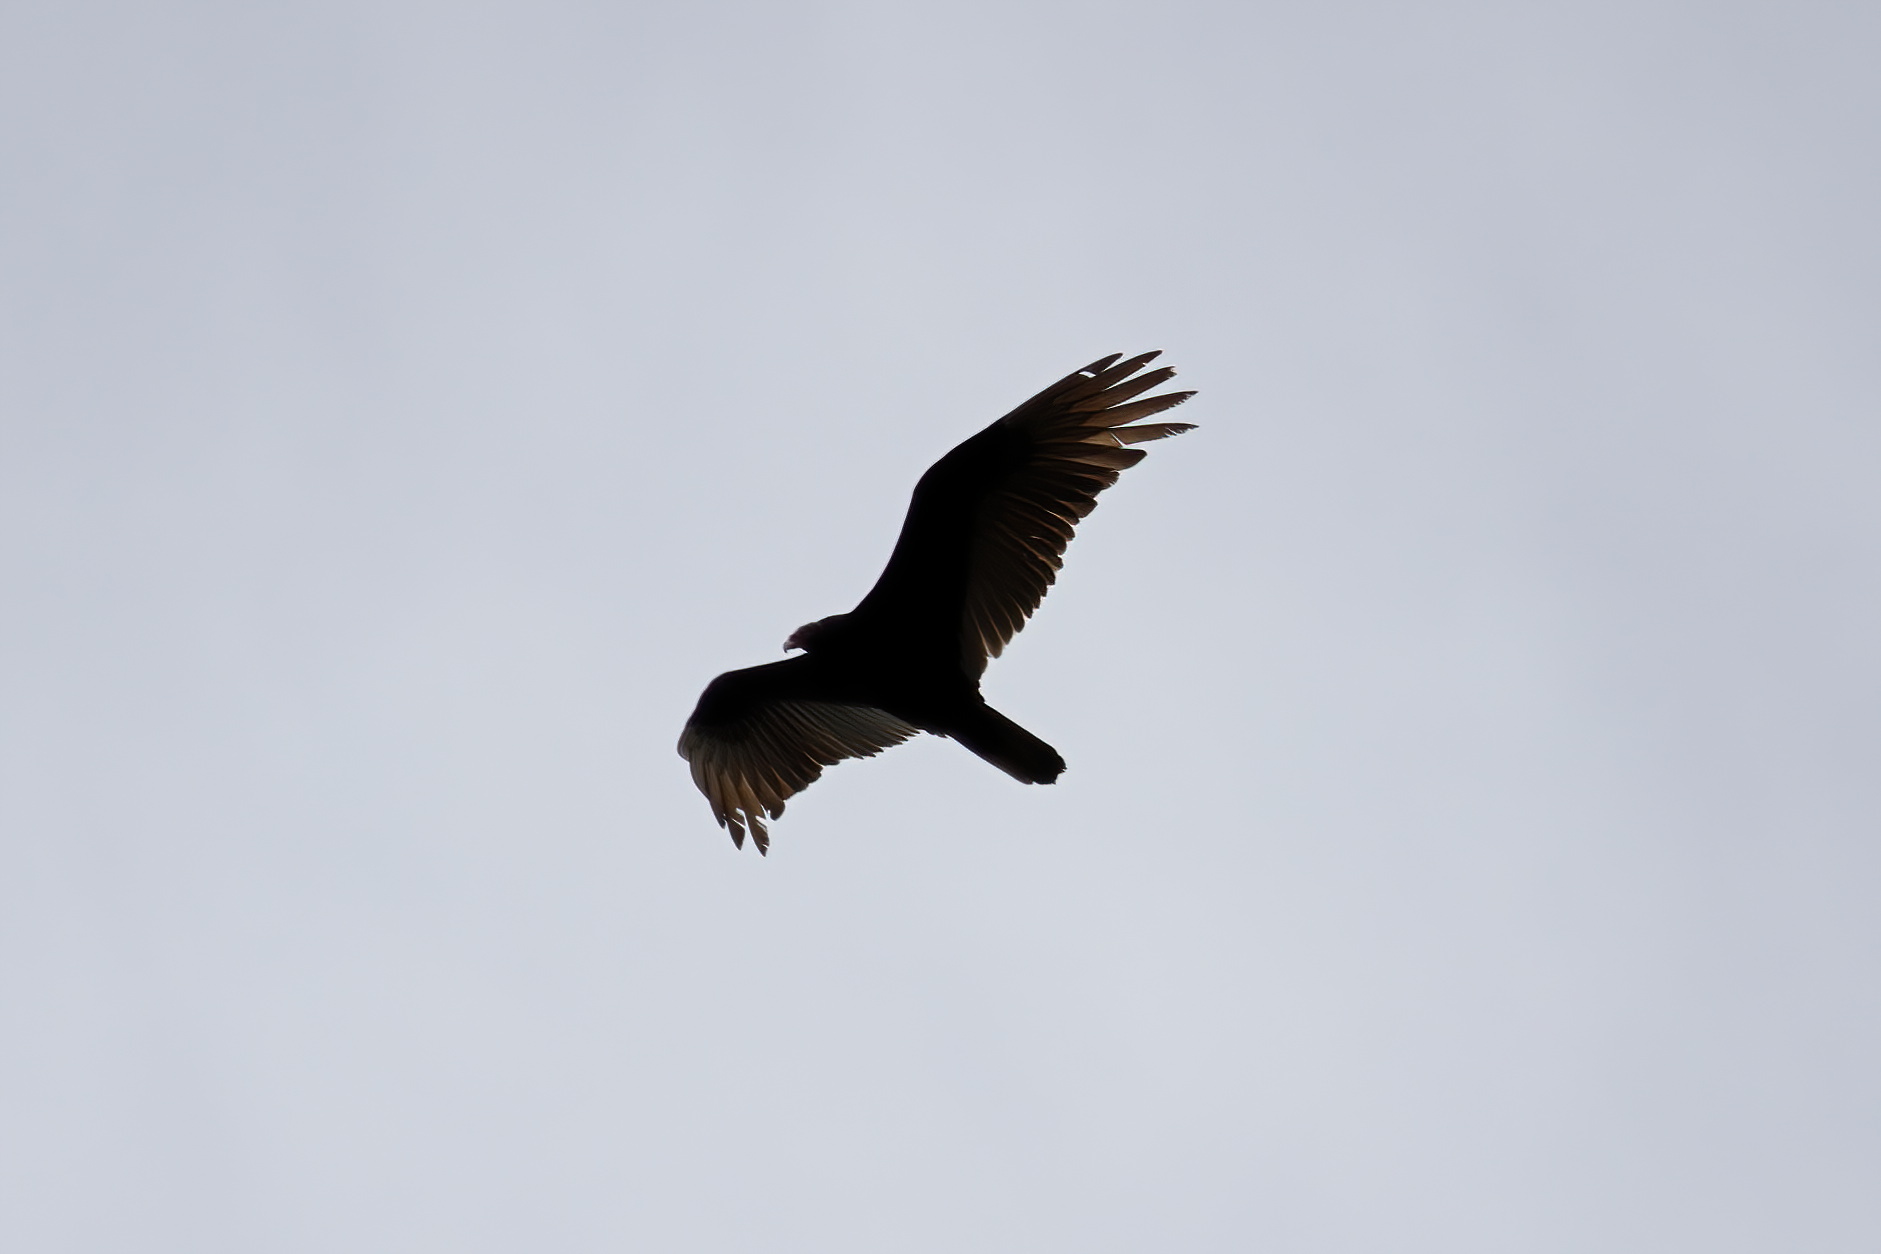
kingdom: Animalia
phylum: Chordata
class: Aves
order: Accipitriformes
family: Cathartidae
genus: Cathartes
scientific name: Cathartes aura
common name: Turkey vulture
